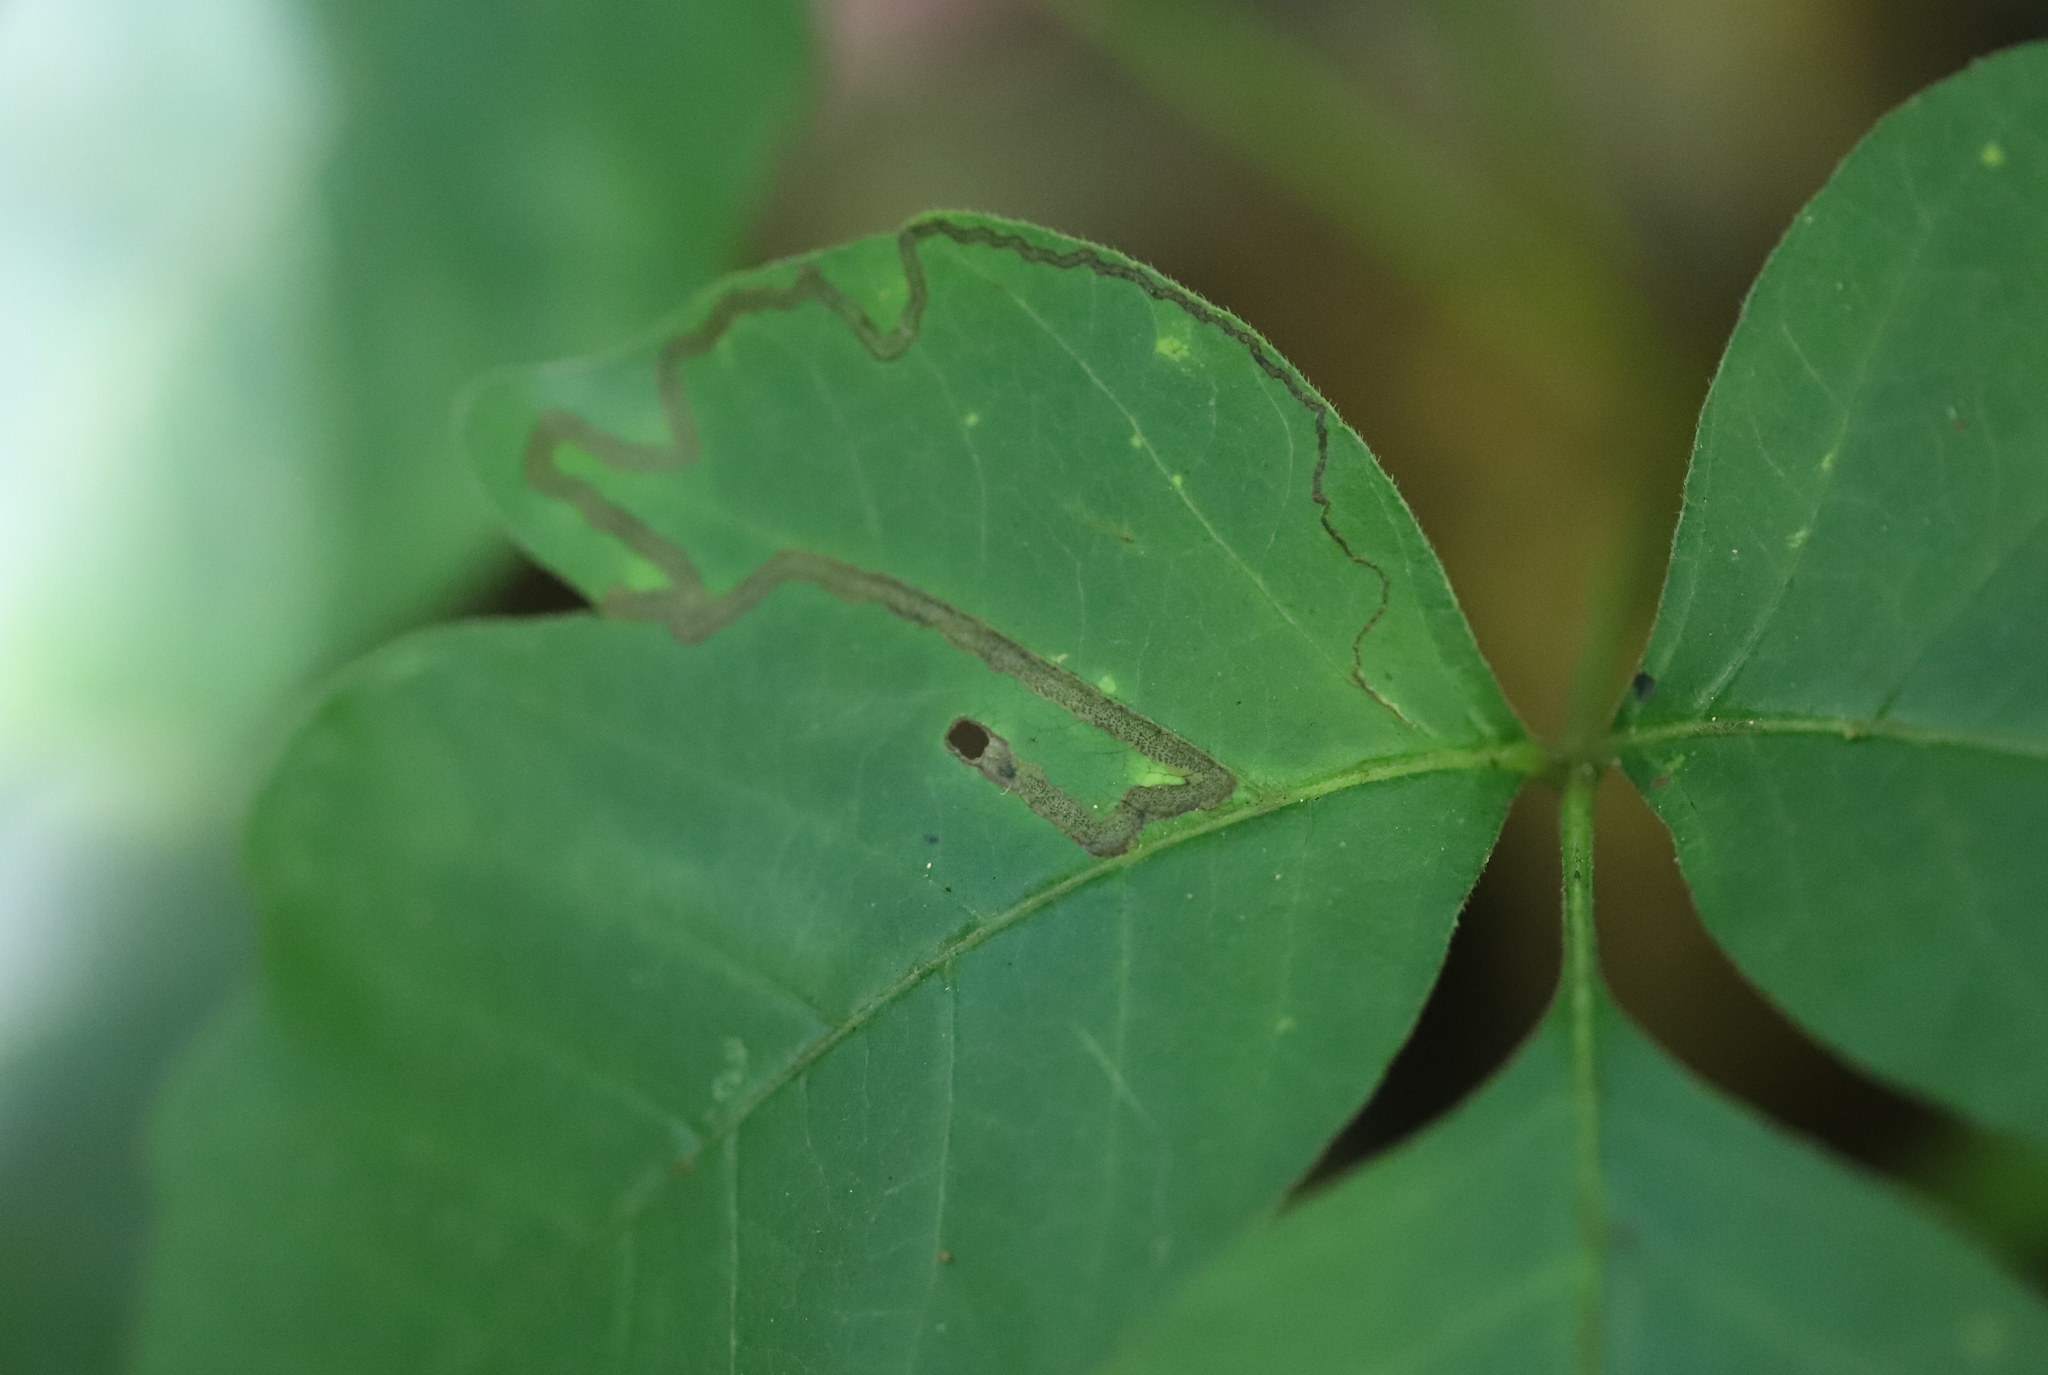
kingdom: Animalia
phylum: Arthropoda
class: Insecta
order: Lepidoptera
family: Nepticulidae
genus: Stigmella
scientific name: Stigmella rhoifoliella
